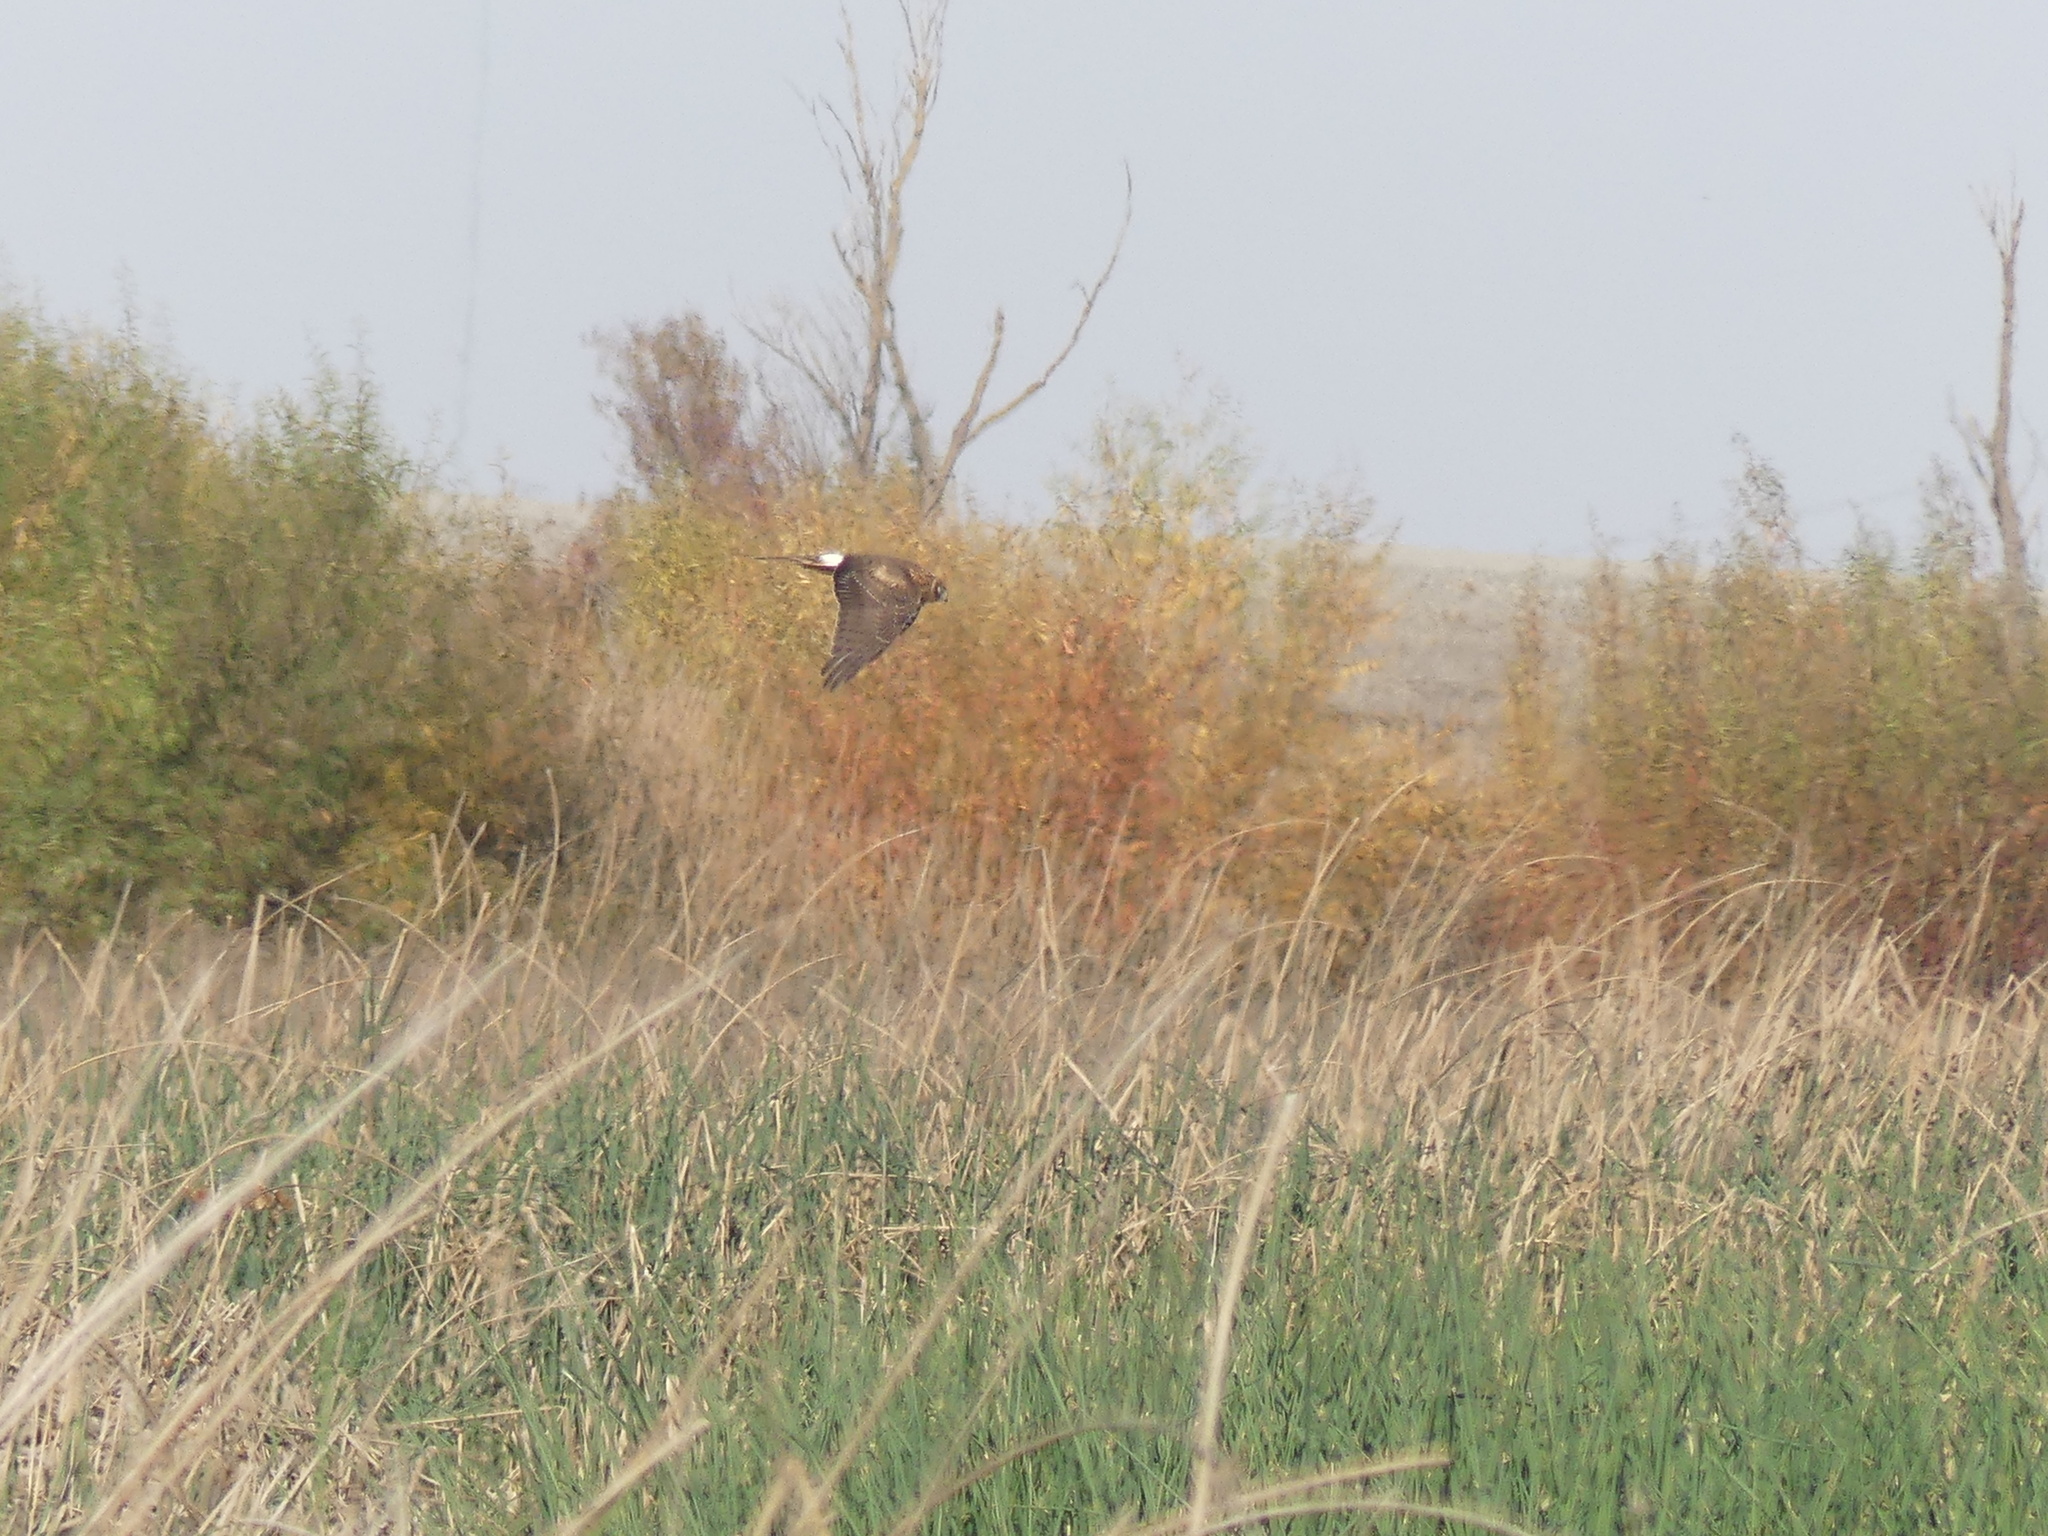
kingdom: Animalia
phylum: Chordata
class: Aves
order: Accipitriformes
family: Accipitridae
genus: Circus
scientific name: Circus cyaneus
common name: Hen harrier
